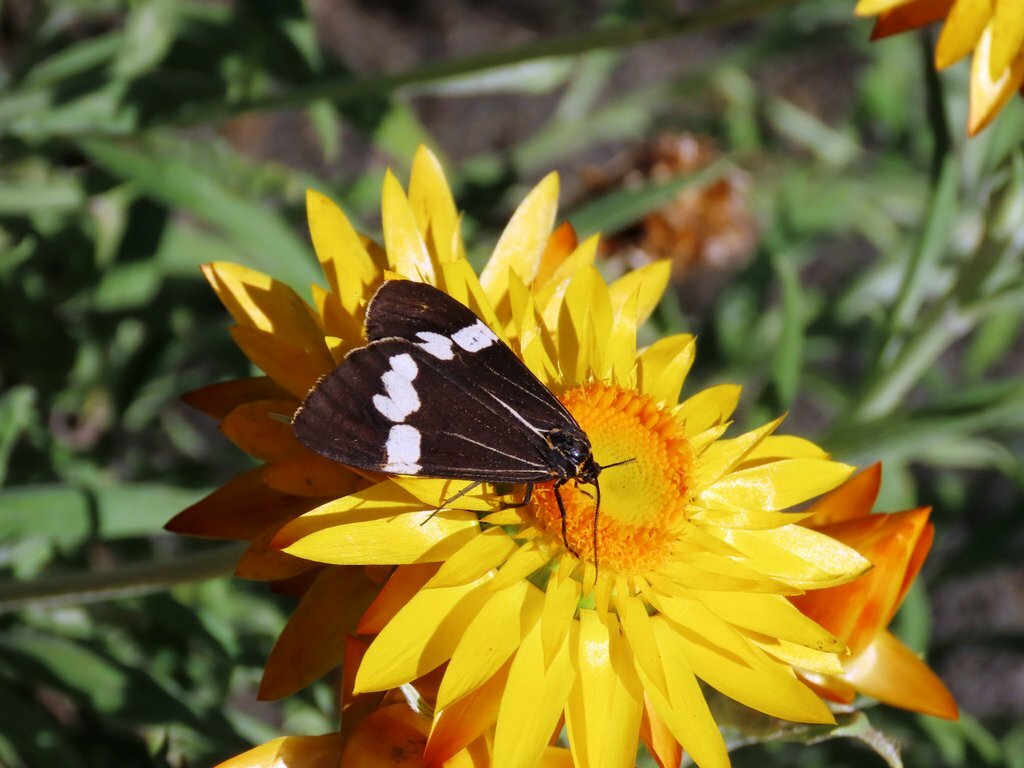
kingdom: Animalia
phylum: Arthropoda
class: Insecta
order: Lepidoptera
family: Erebidae
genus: Nyctemera
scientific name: Nyctemera amicus
